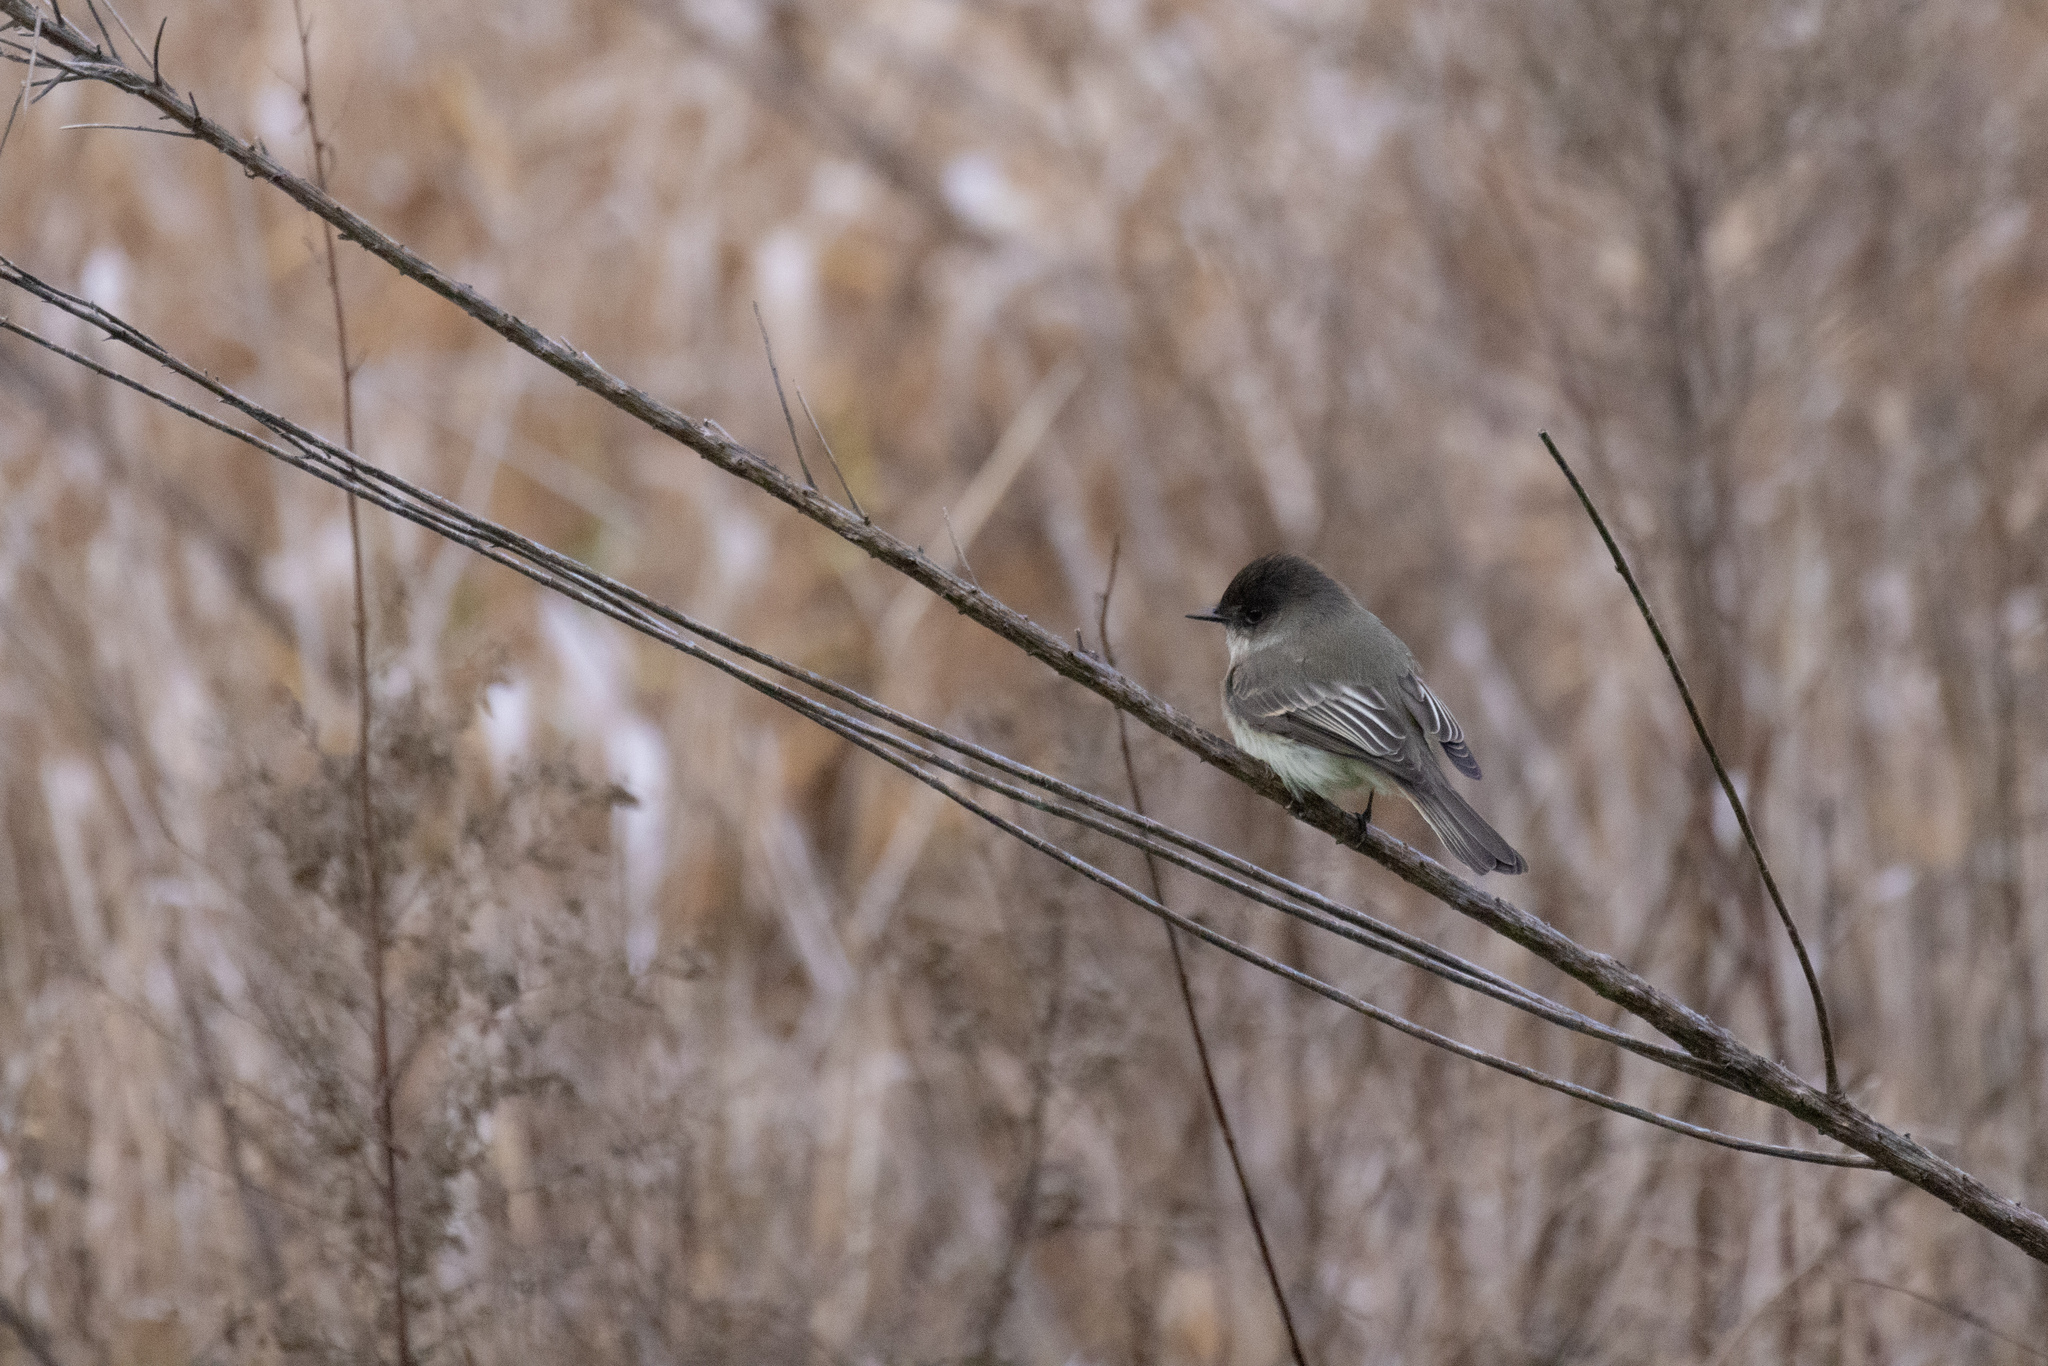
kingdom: Animalia
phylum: Chordata
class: Aves
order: Passeriformes
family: Tyrannidae
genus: Sayornis
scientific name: Sayornis phoebe
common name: Eastern phoebe
